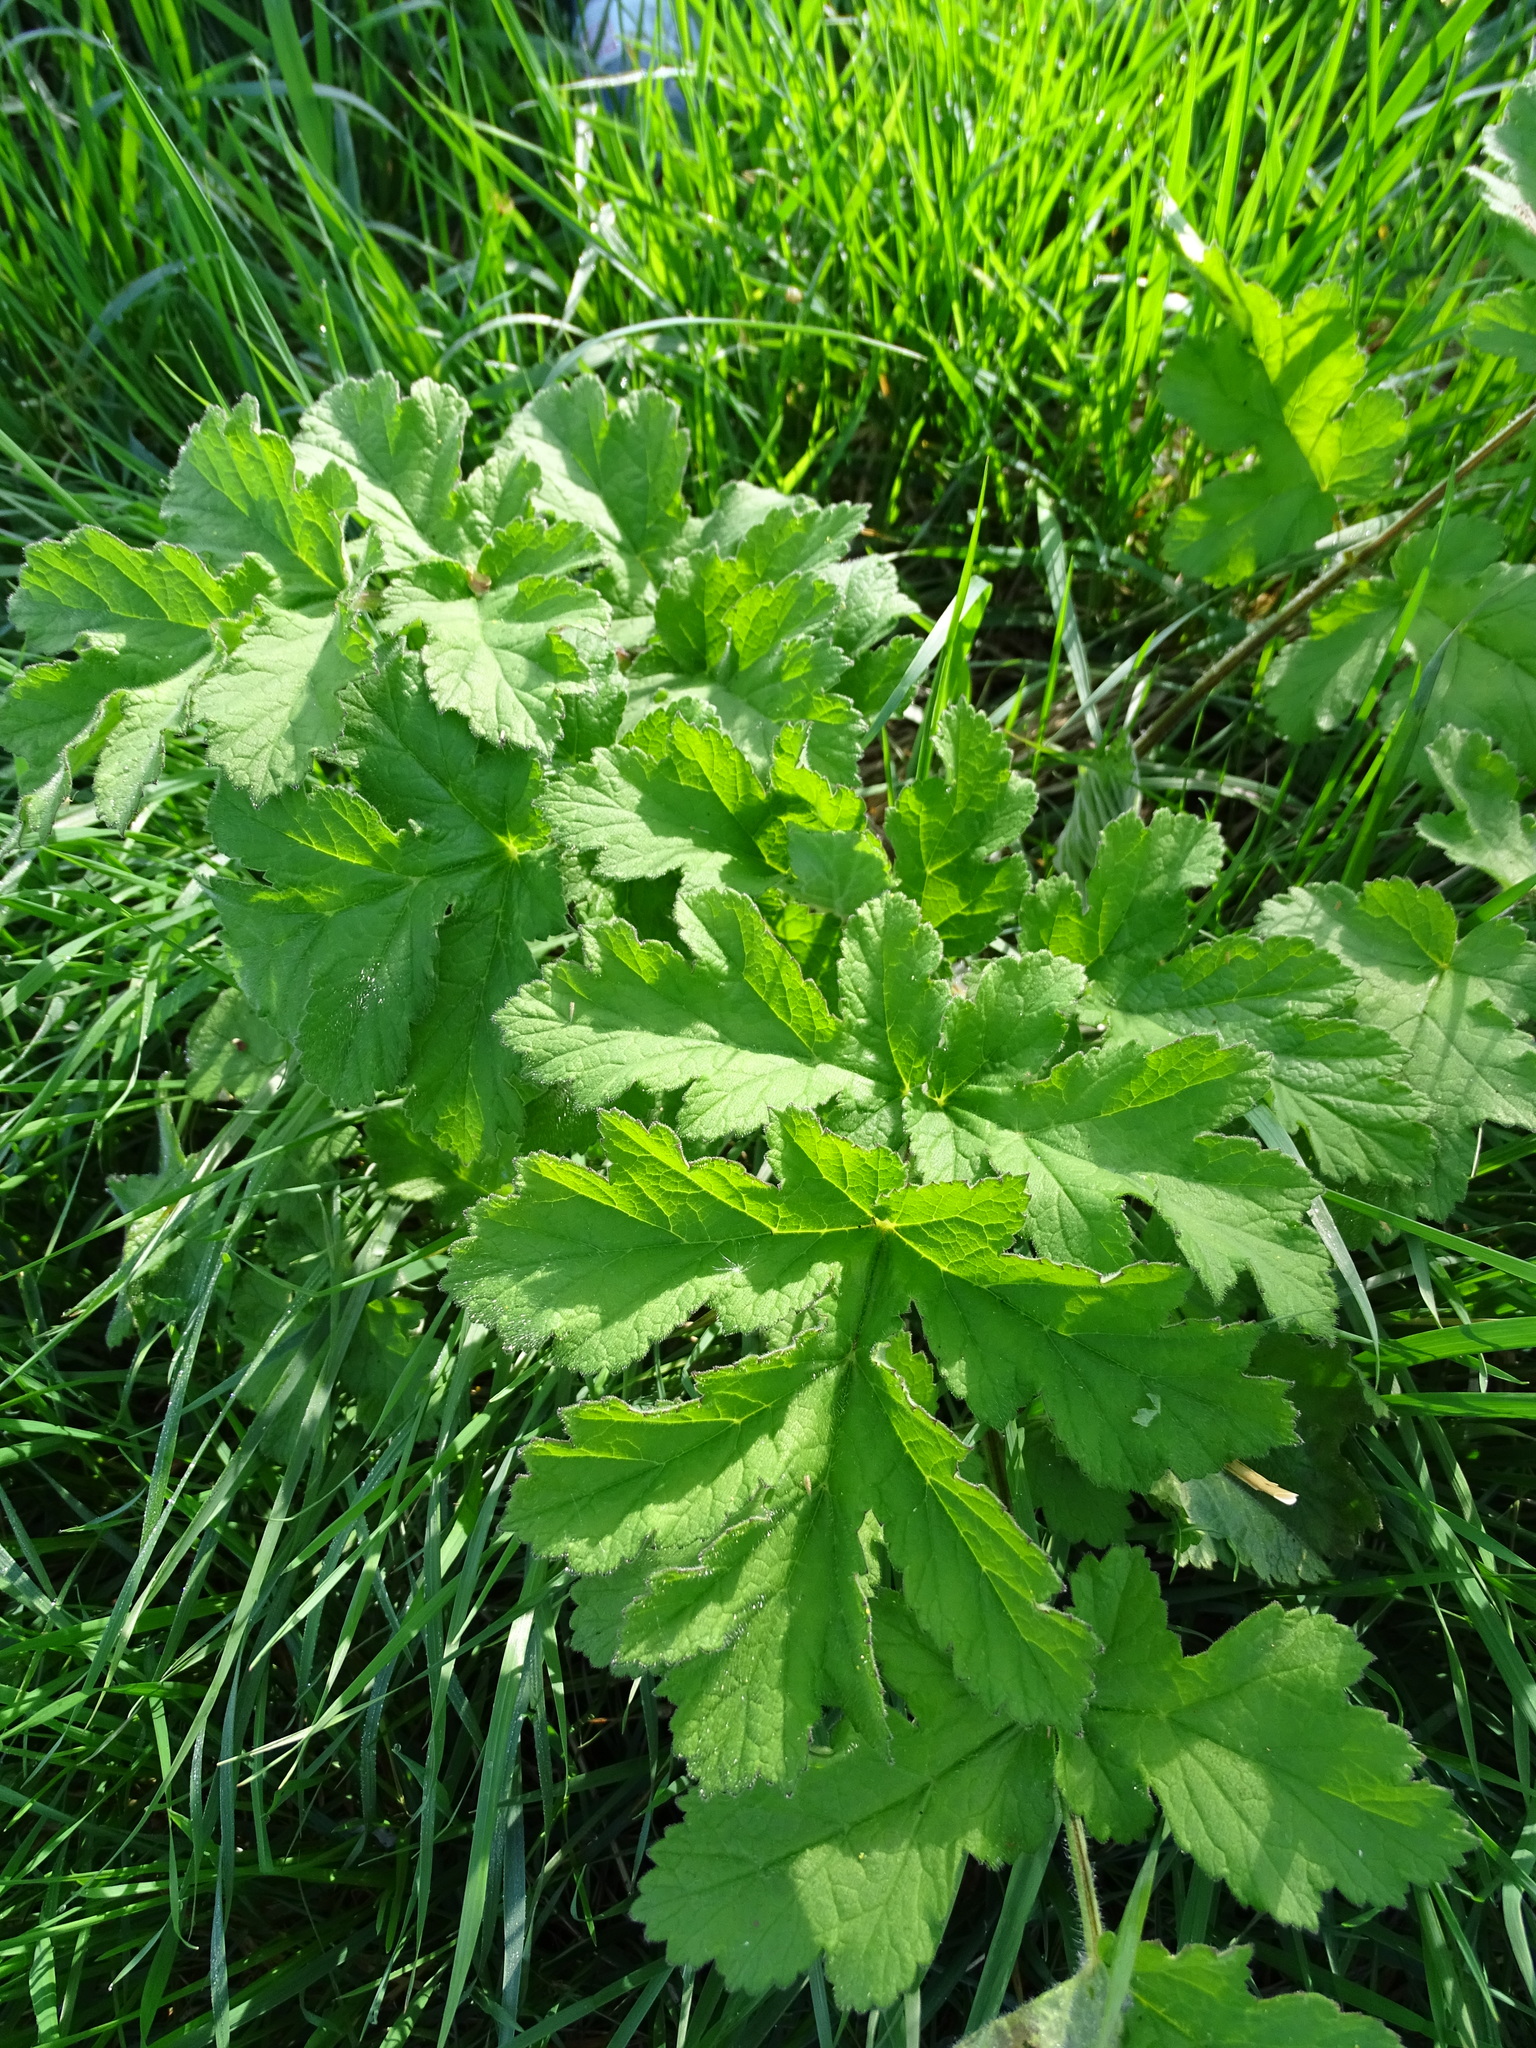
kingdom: Plantae
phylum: Tracheophyta
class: Magnoliopsida
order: Apiales
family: Apiaceae
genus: Heracleum
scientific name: Heracleum sphondylium
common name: Hogweed
